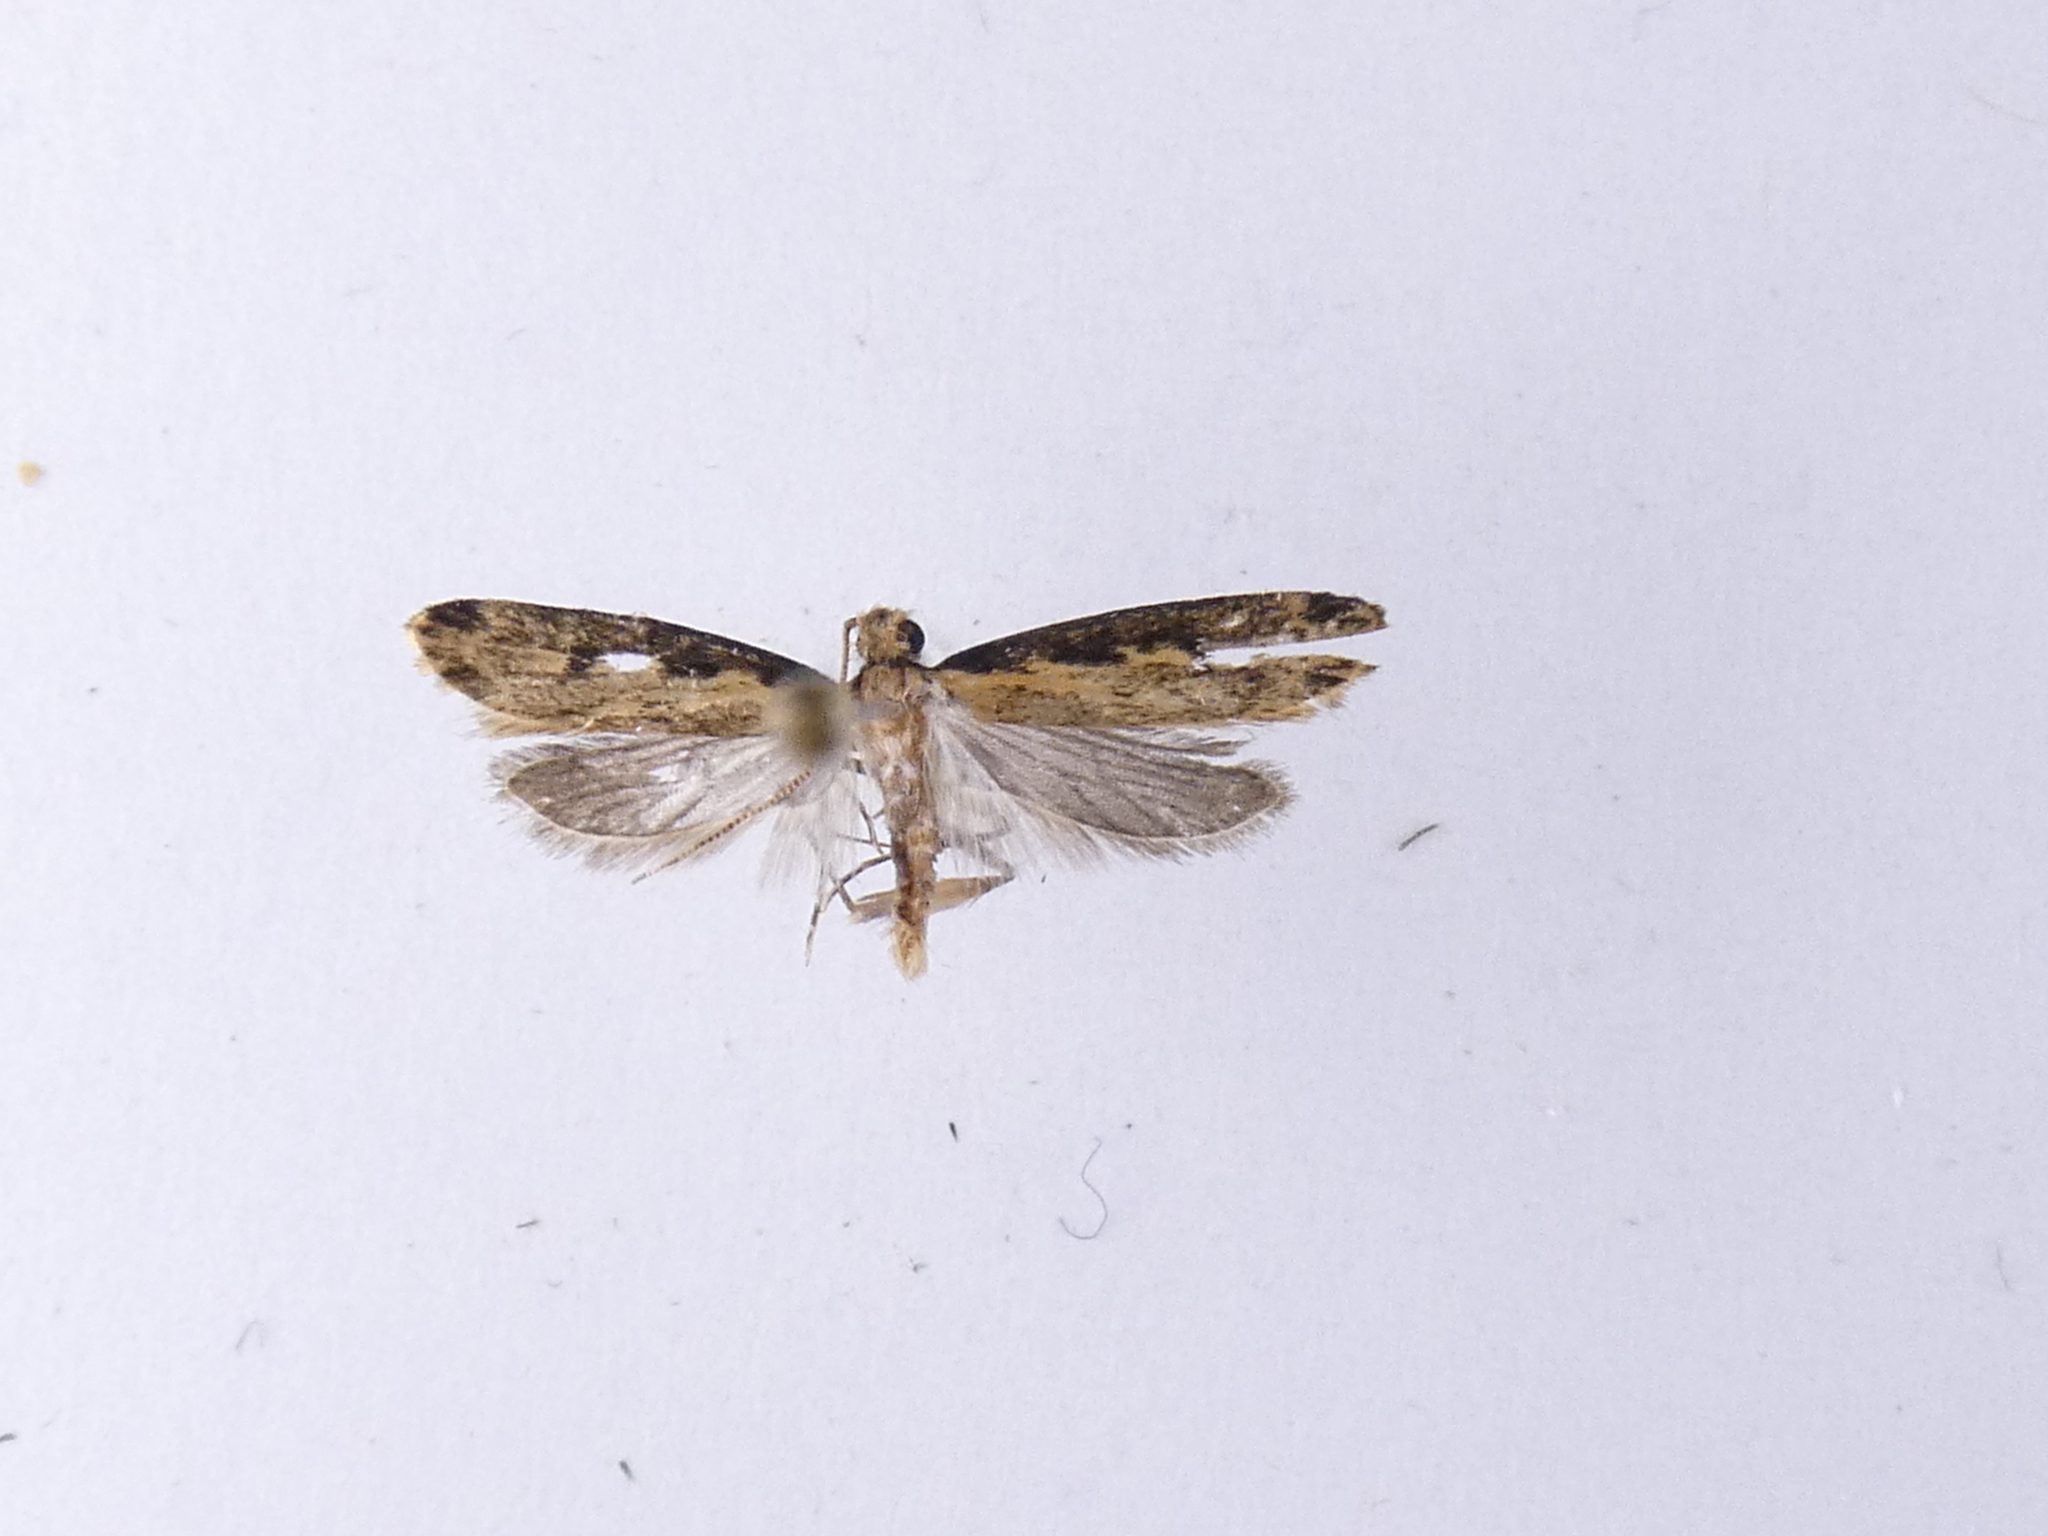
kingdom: Animalia
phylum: Arthropoda
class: Insecta
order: Lepidoptera
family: Oecophoridae
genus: Gymnobathra
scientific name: Gymnobathra
